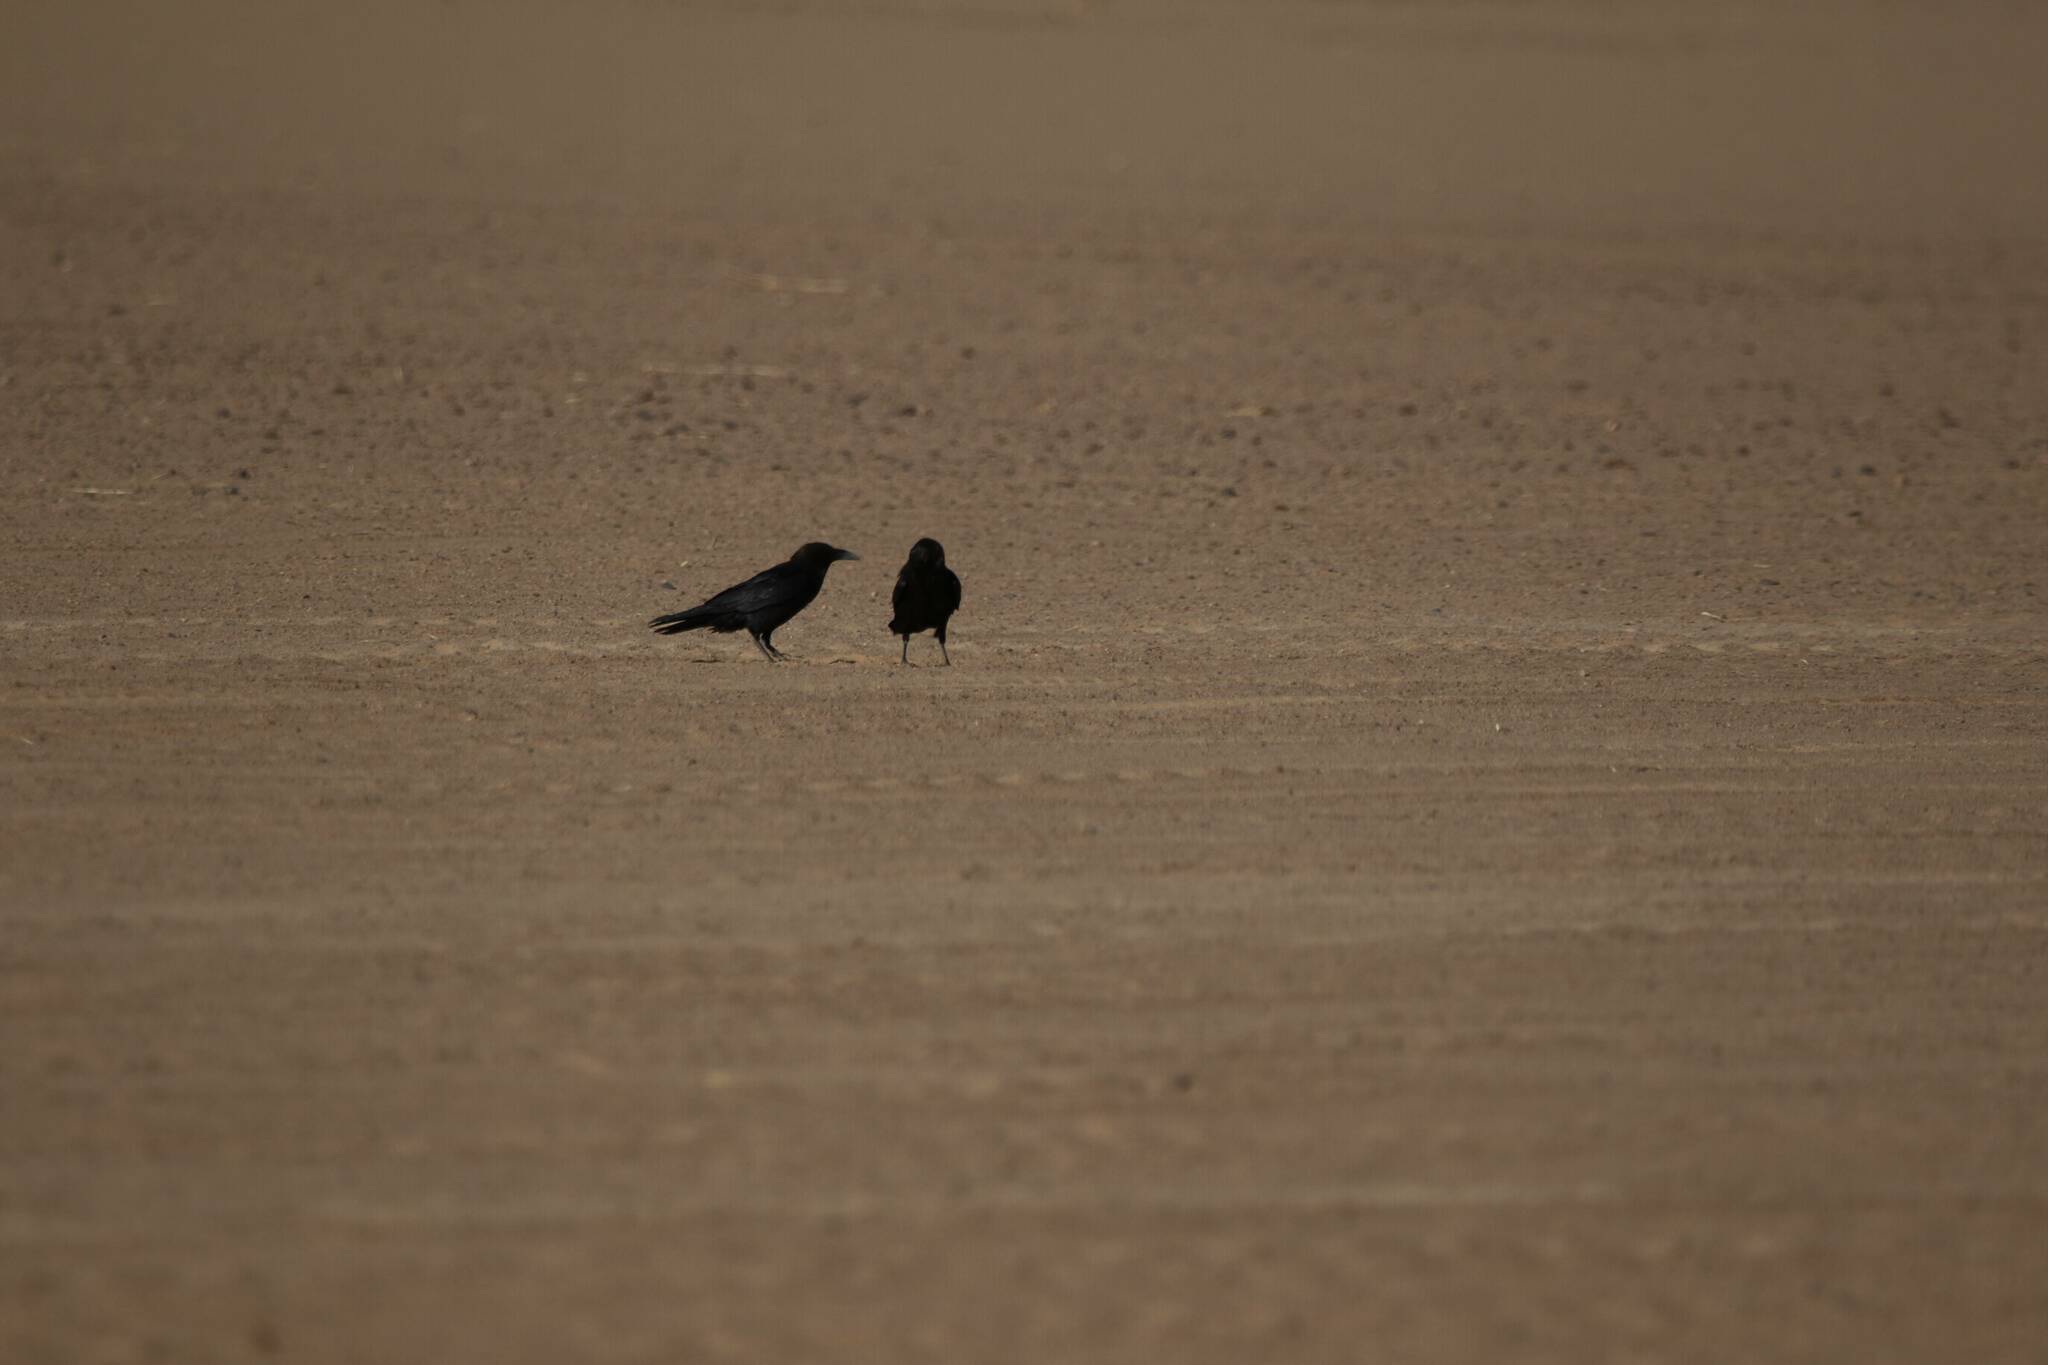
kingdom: Animalia
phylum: Chordata
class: Aves
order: Passeriformes
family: Corvidae
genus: Corvus
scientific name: Corvus ruficollis
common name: Brown-necked raven
